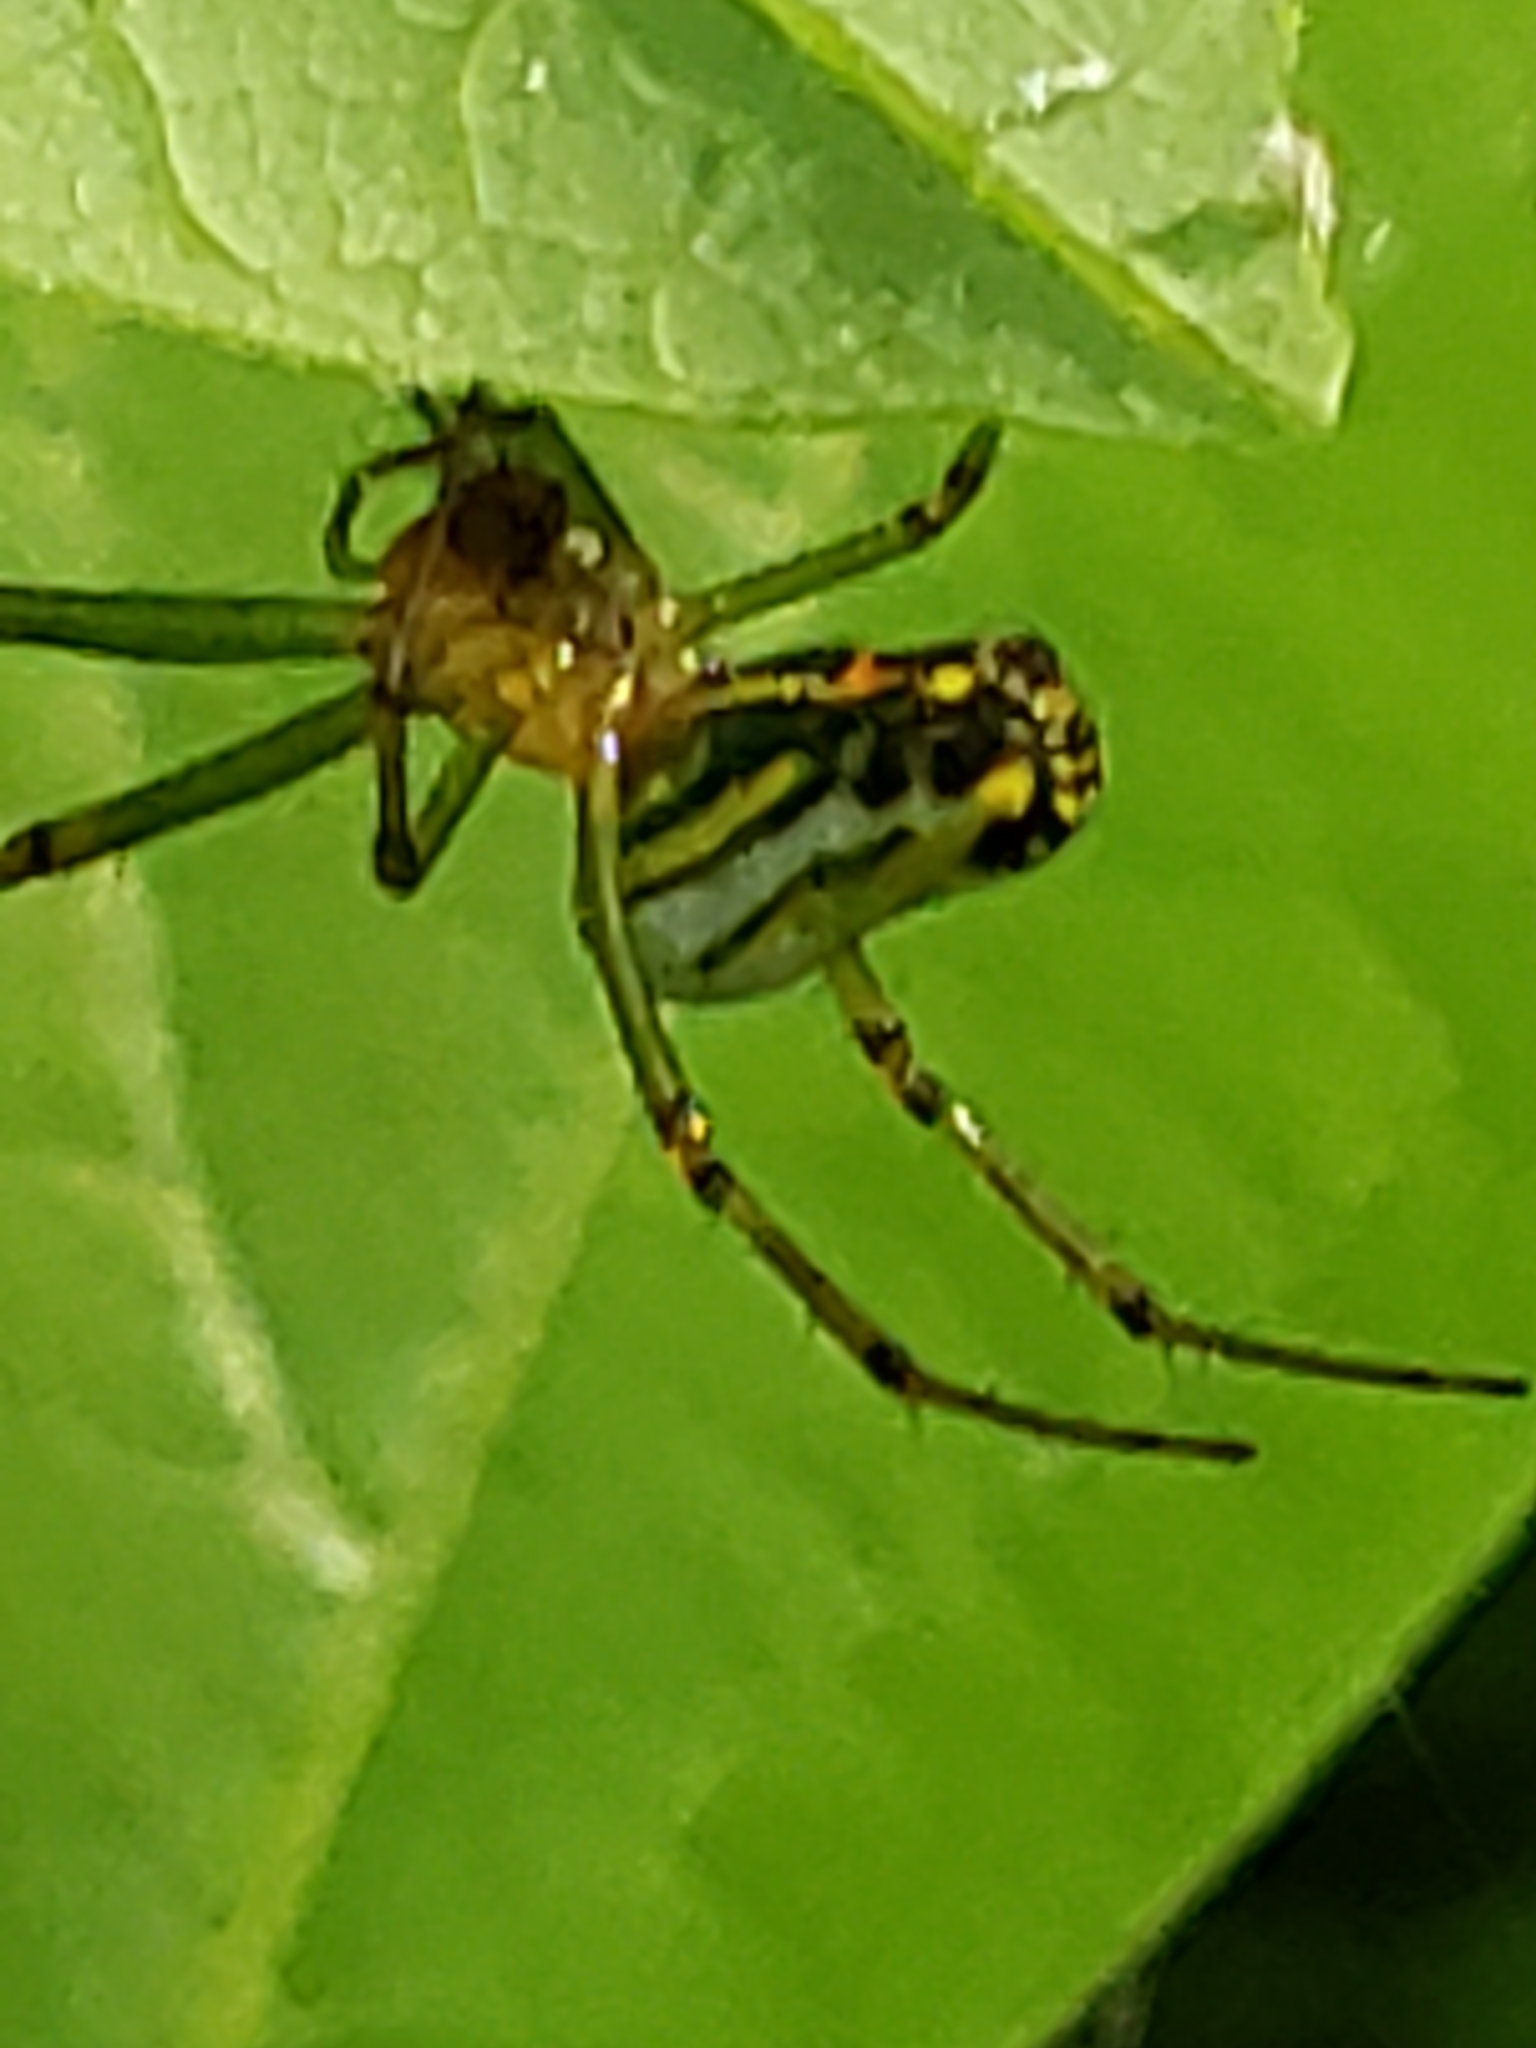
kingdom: Animalia
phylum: Arthropoda
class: Arachnida
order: Araneae
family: Tetragnathidae
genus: Leucauge
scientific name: Leucauge venusta
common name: Longjawed orb weavers
